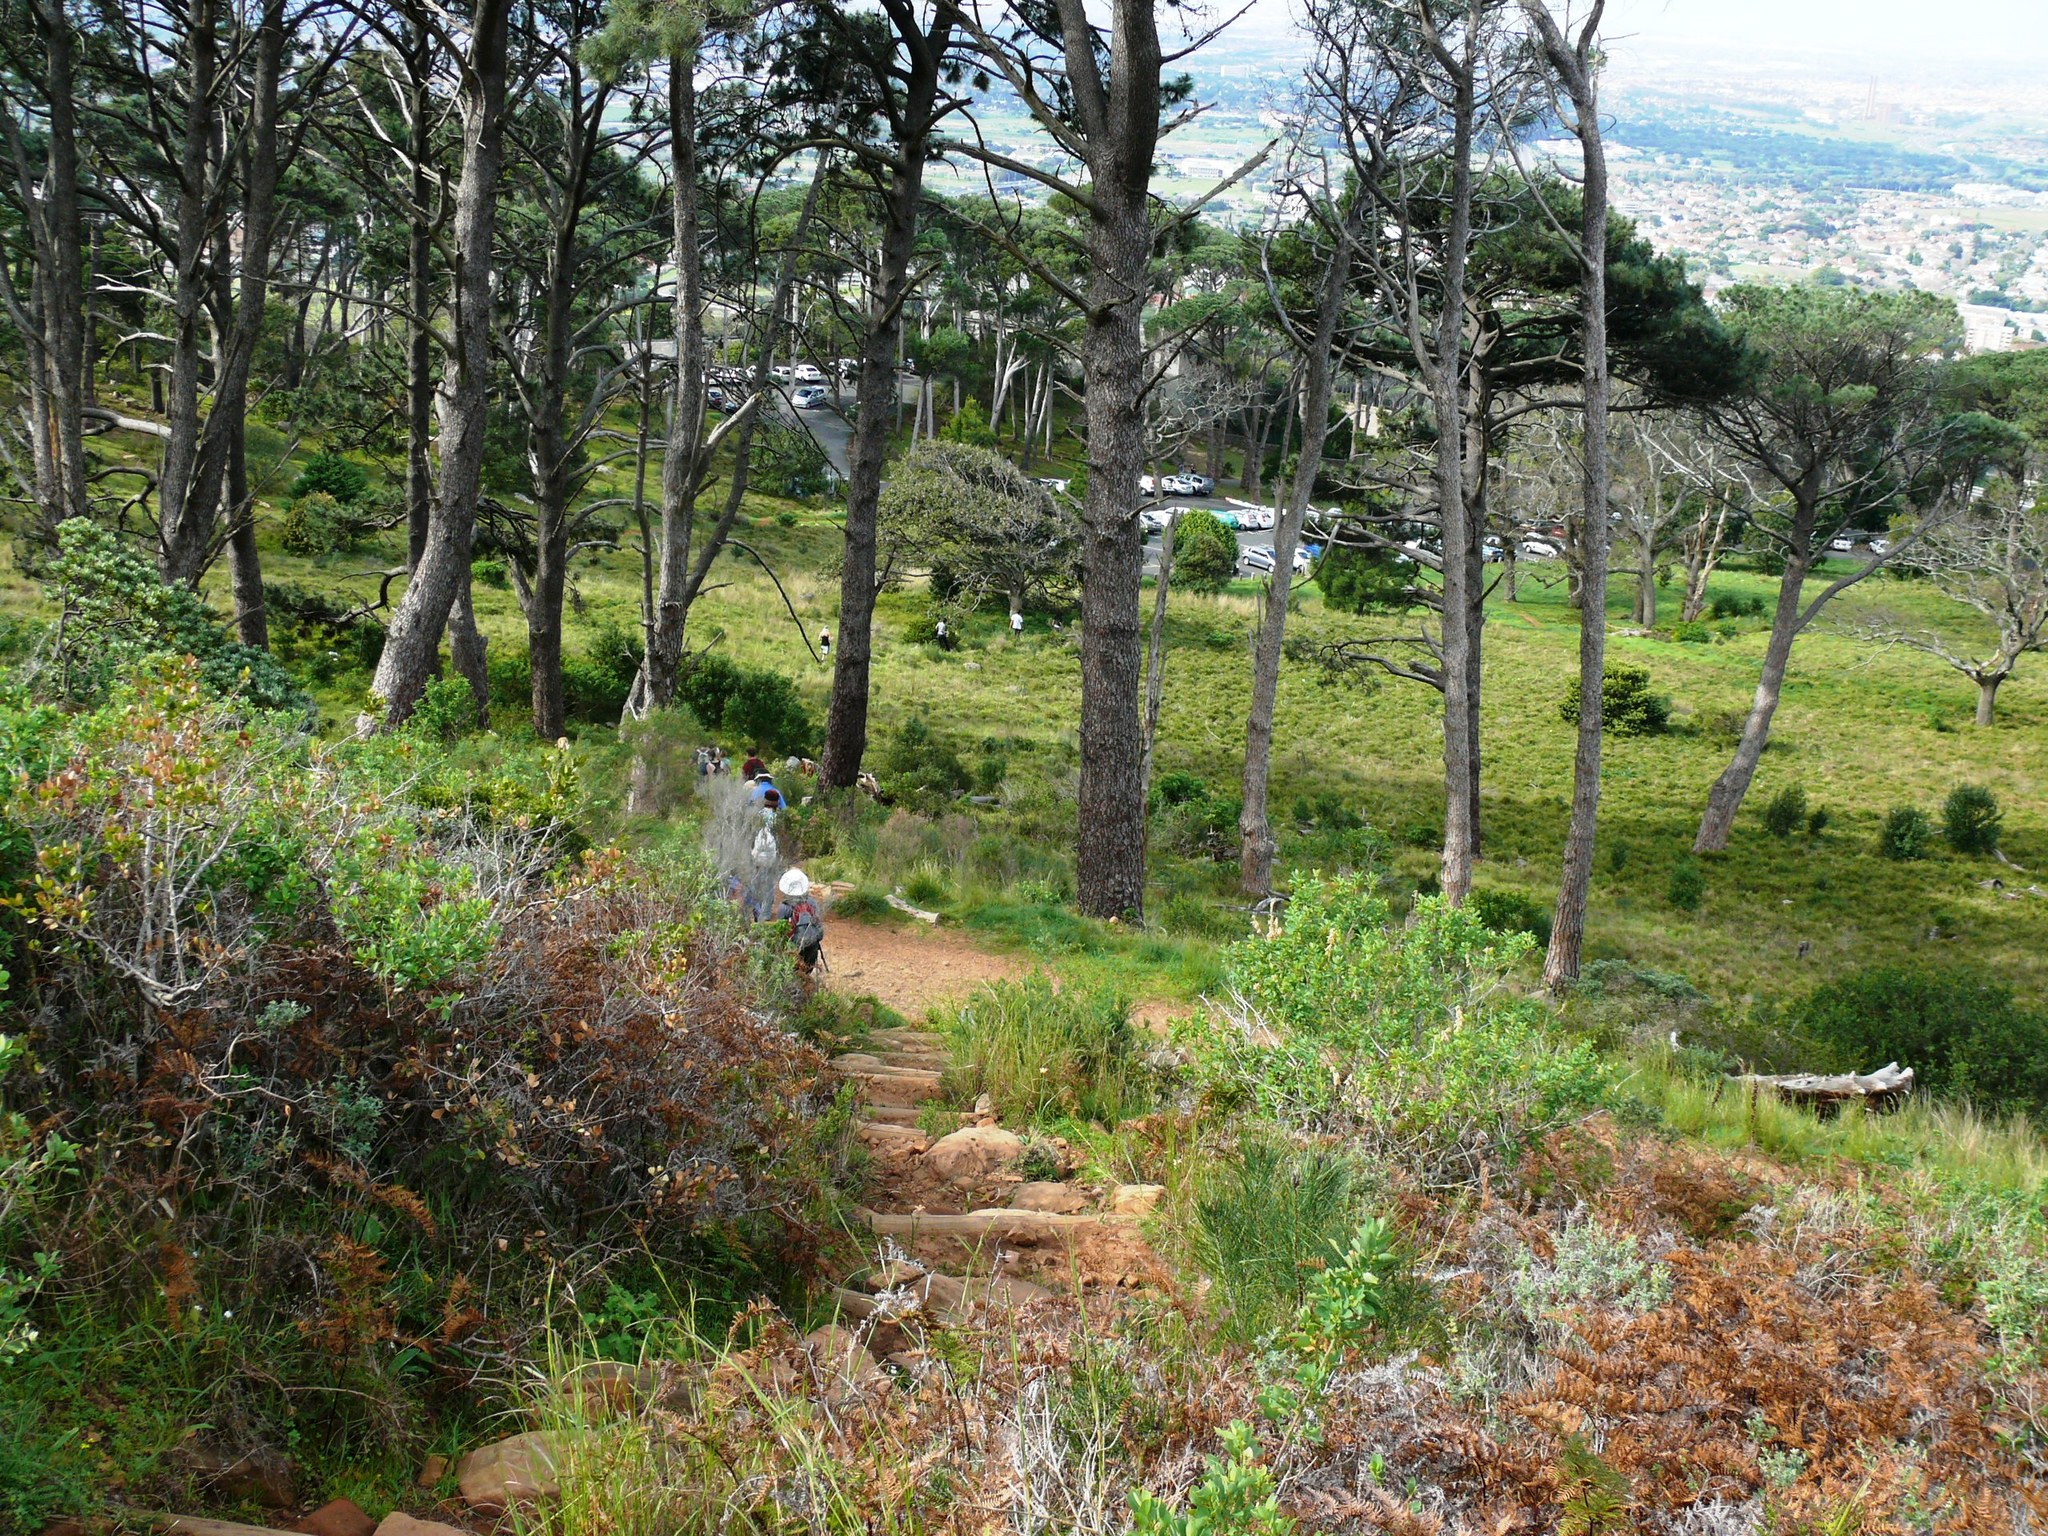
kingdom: Plantae
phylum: Tracheophyta
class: Pinopsida
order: Pinales
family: Pinaceae
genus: Pinus
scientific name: Pinus pinea
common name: Italian stone pine
